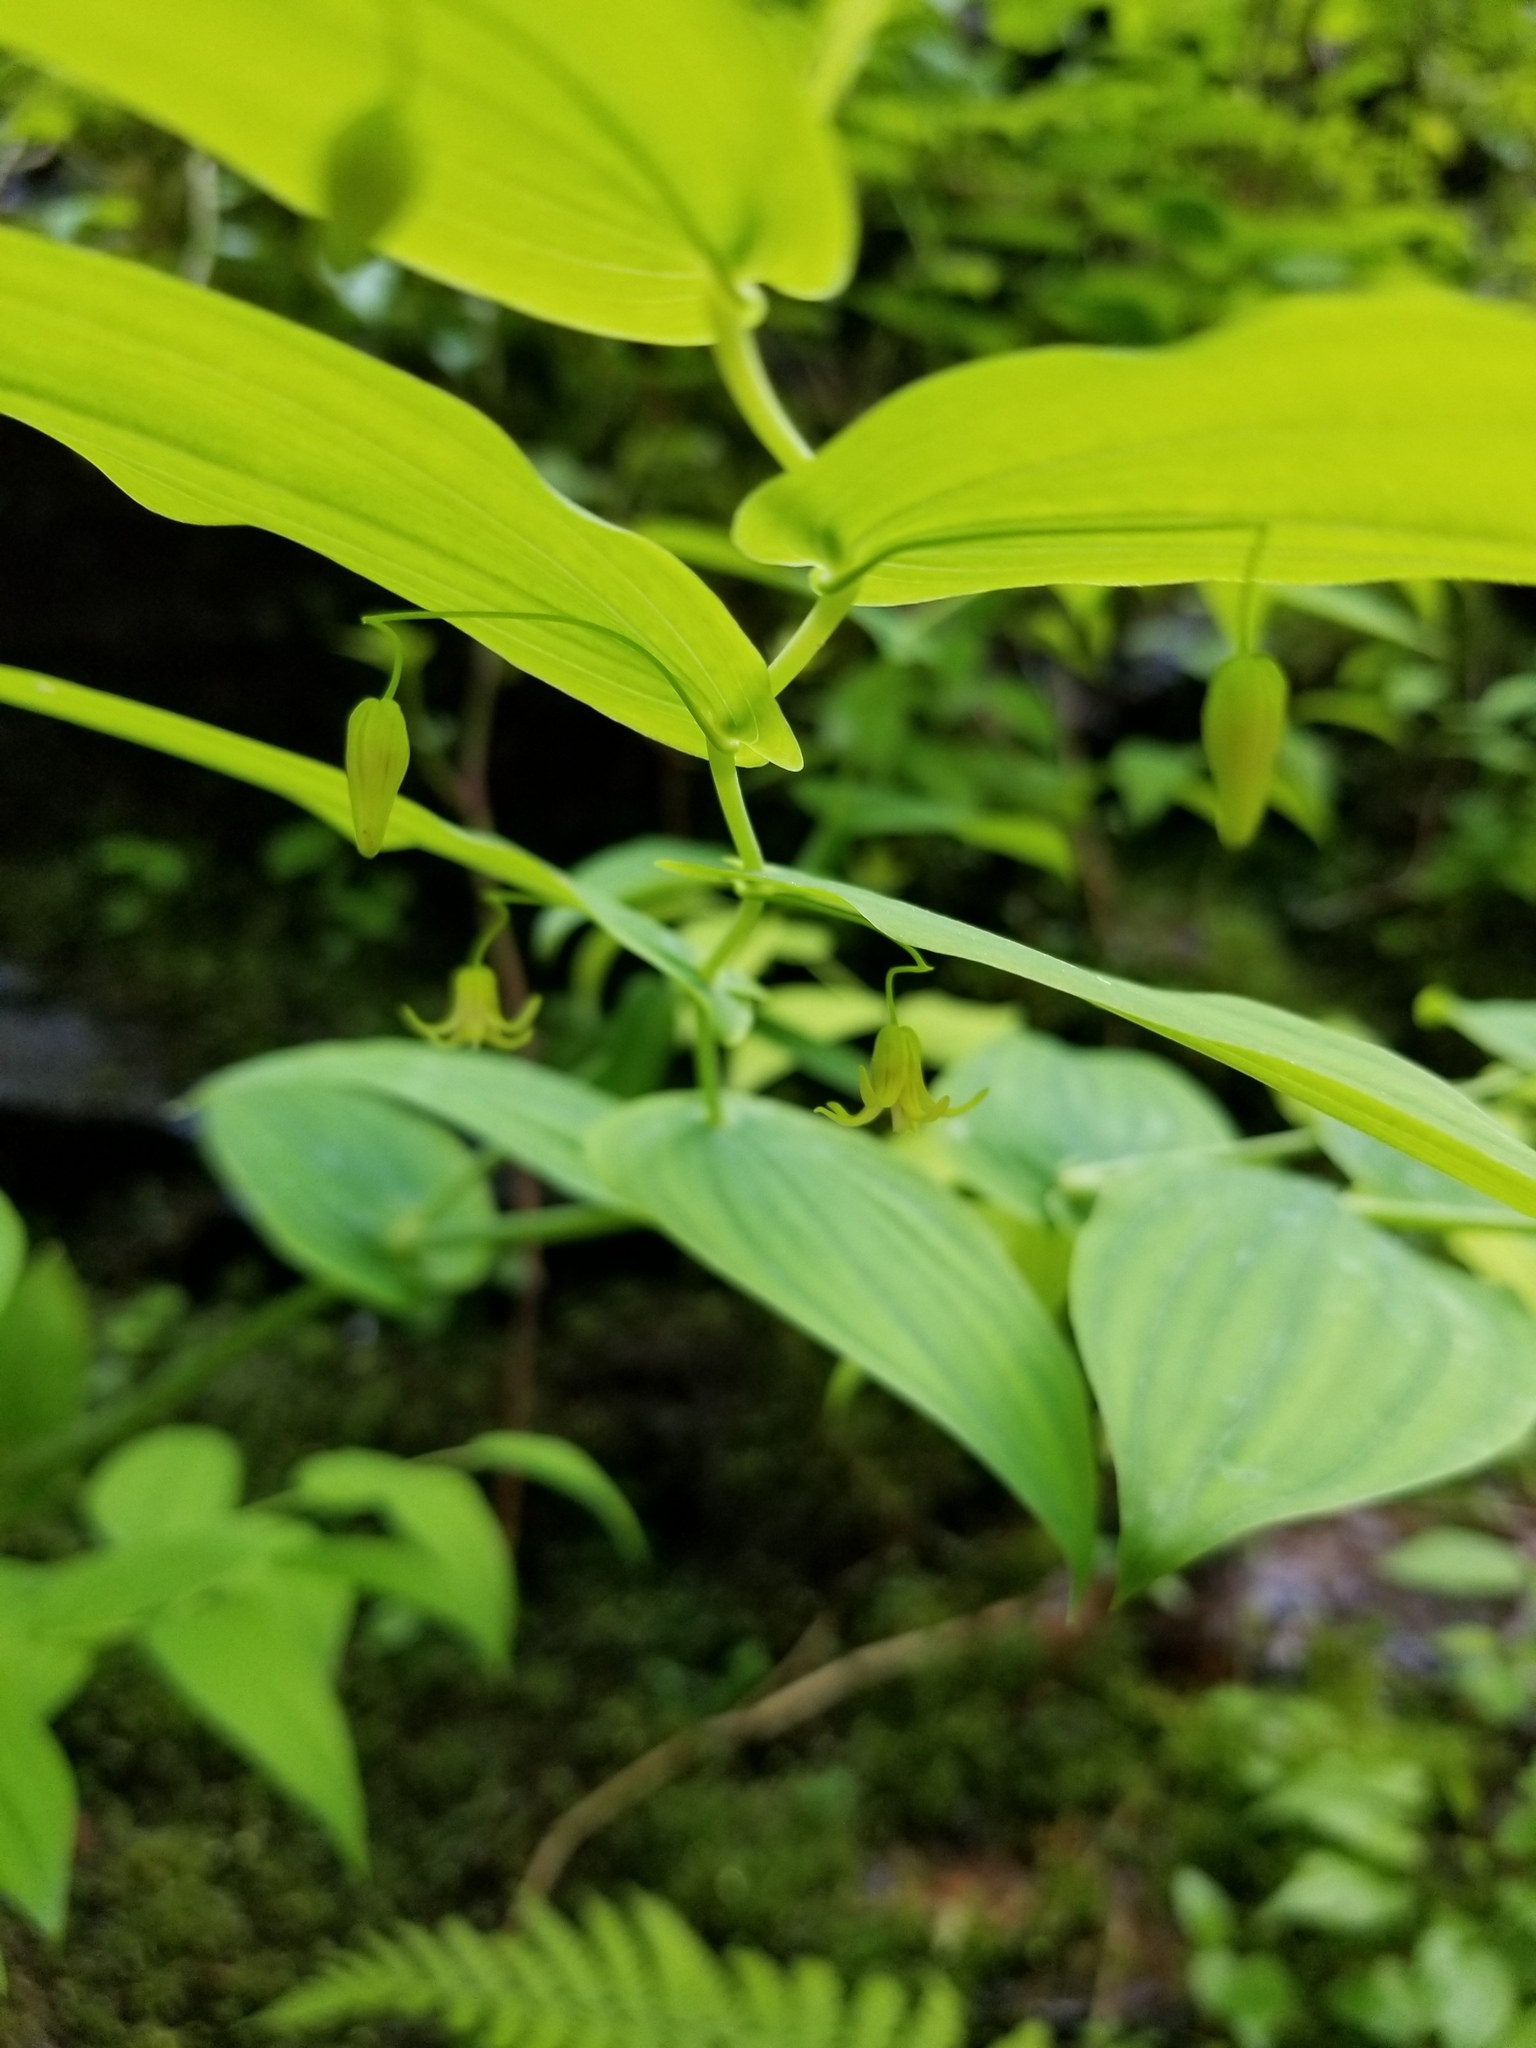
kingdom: Plantae
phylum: Tracheophyta
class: Liliopsida
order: Liliales
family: Liliaceae
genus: Streptopus
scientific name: Streptopus amplexifolius
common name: Clasp twisted stalk
